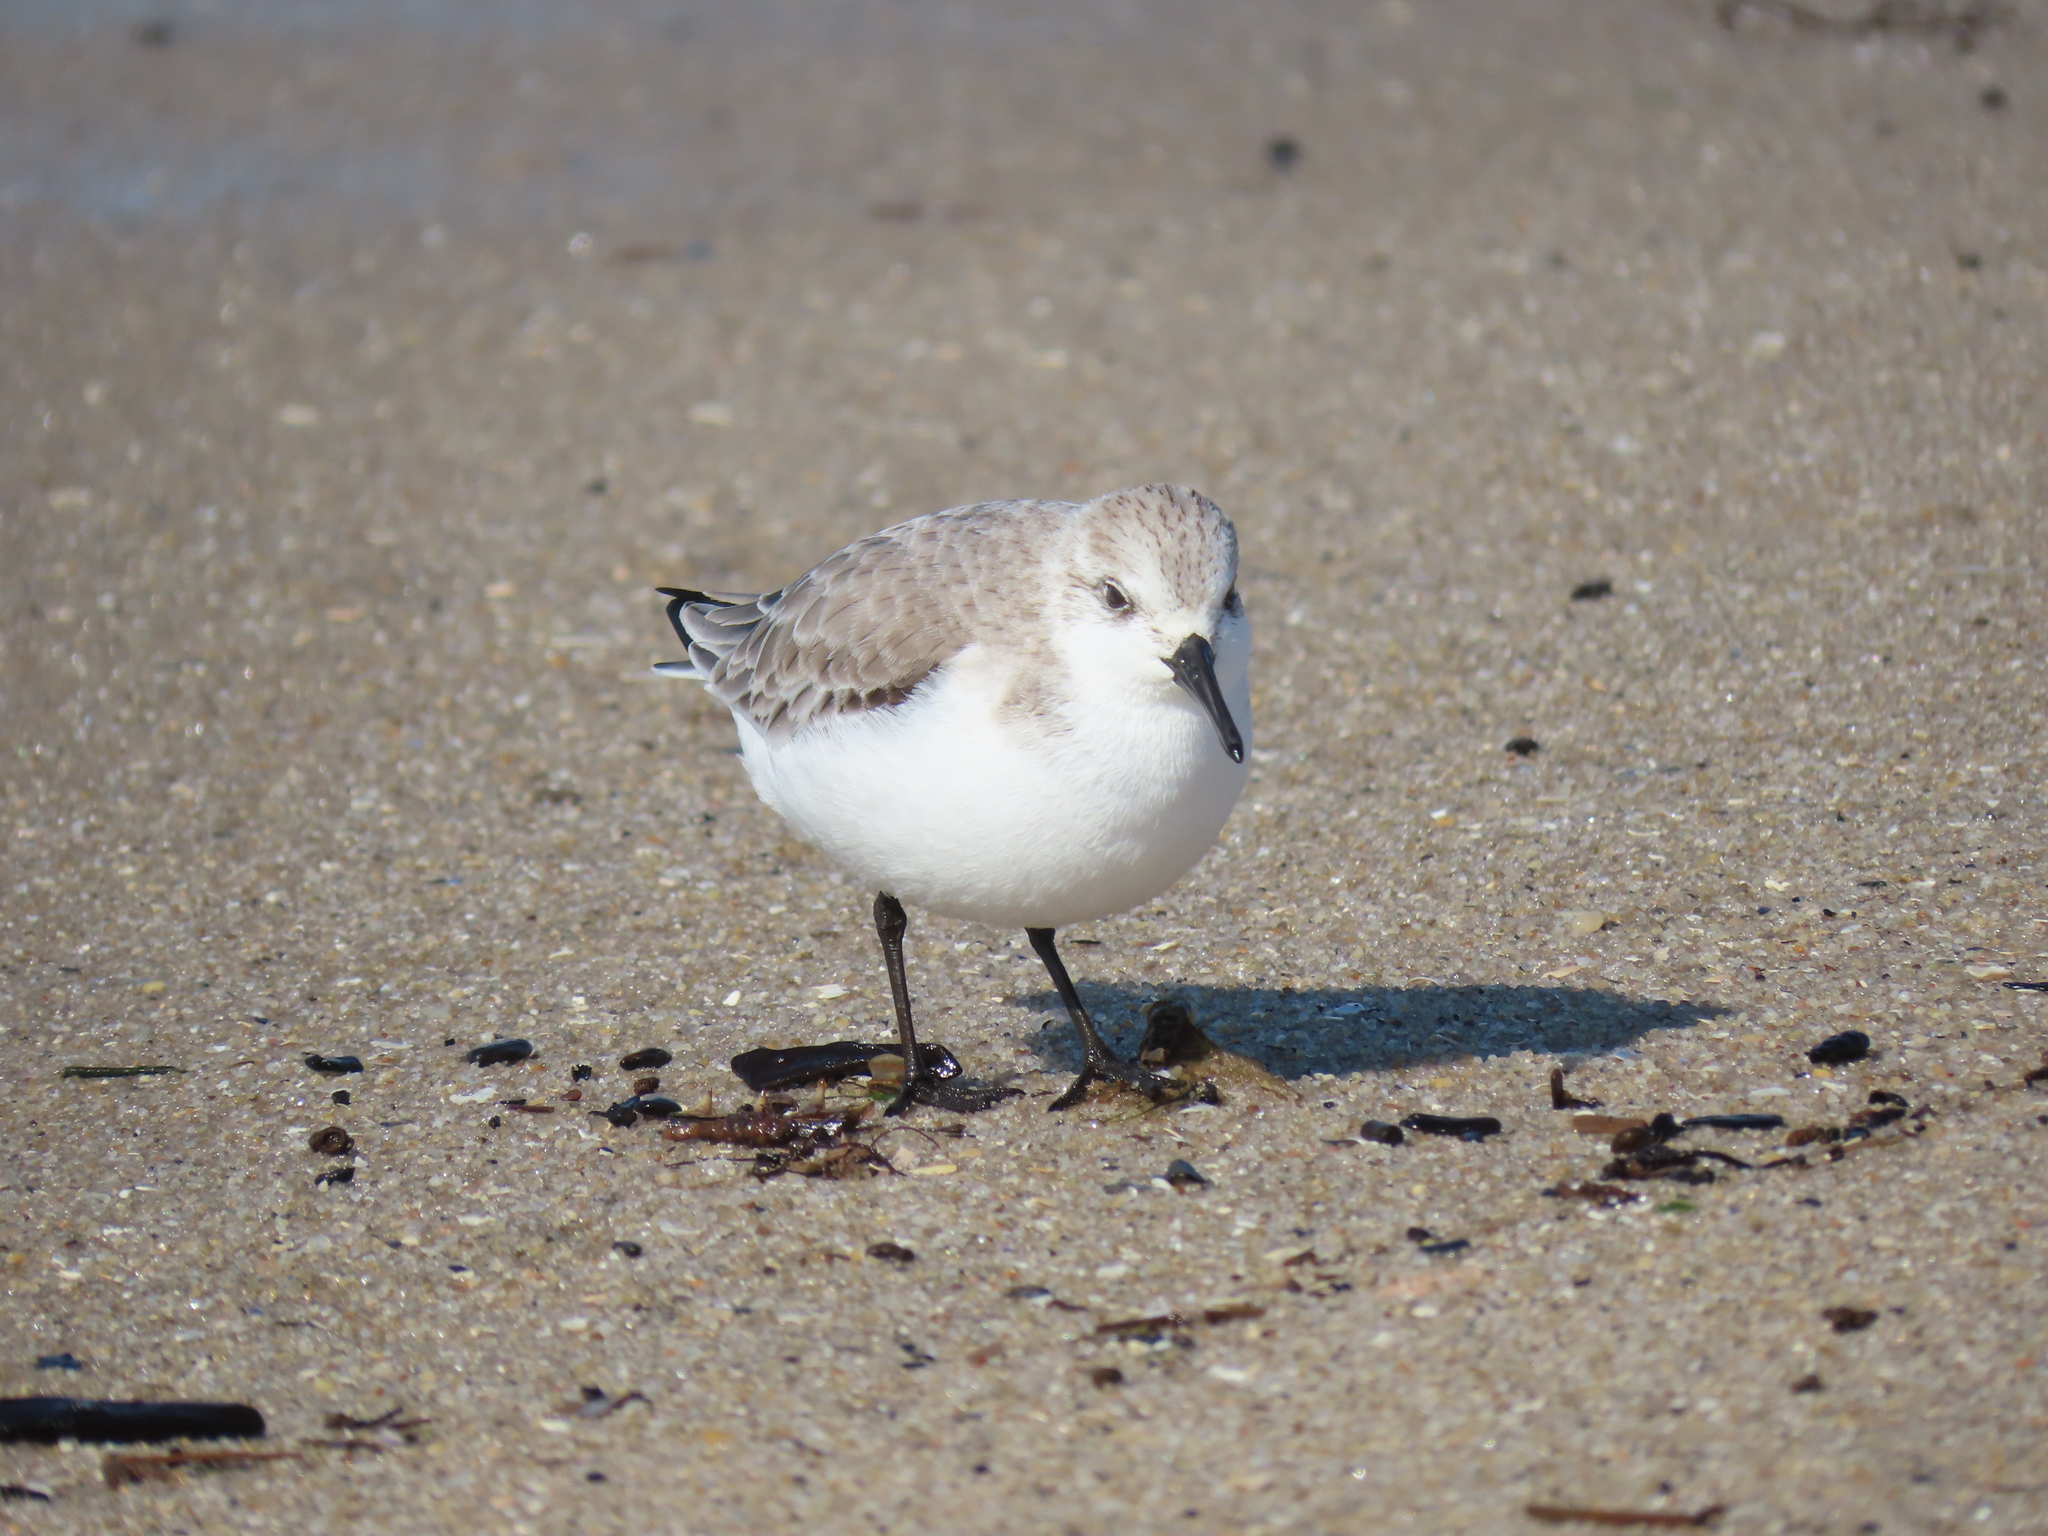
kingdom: Animalia
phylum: Chordata
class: Aves
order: Charadriiformes
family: Scolopacidae
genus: Calidris
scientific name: Calidris alba
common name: Sanderling
